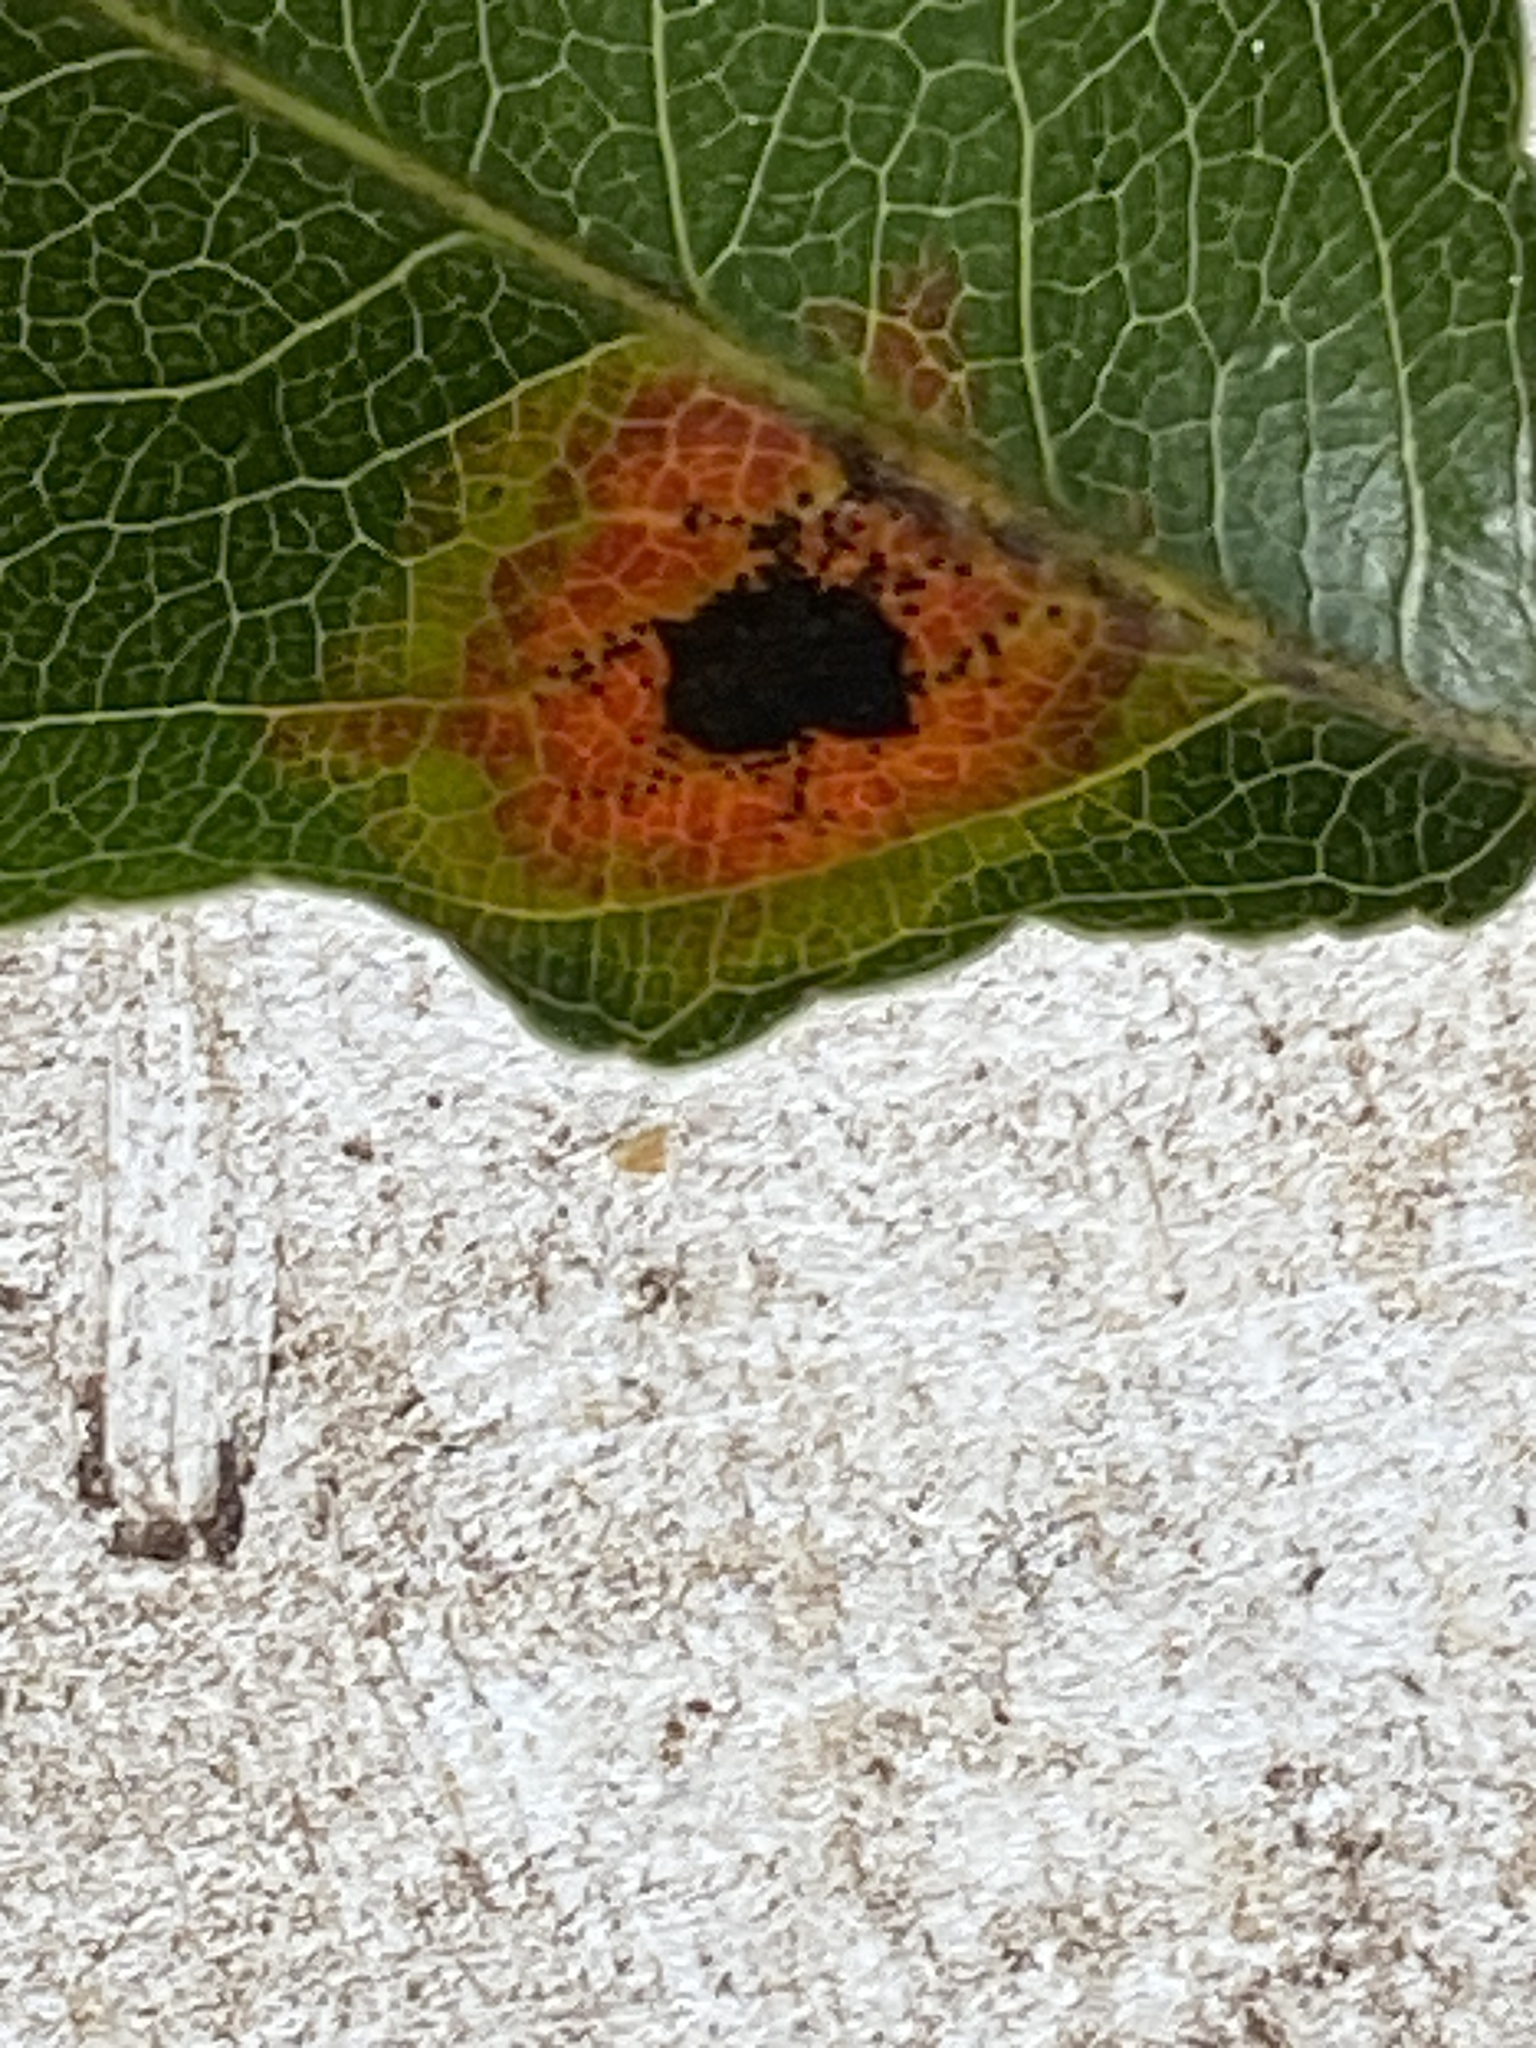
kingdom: Fungi
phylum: Basidiomycota
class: Pucciniomycetes
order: Pucciniales
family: Gymnosporangiaceae
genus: Gymnosporangium
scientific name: Gymnosporangium sabinae
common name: Pear trellis rust fungus
